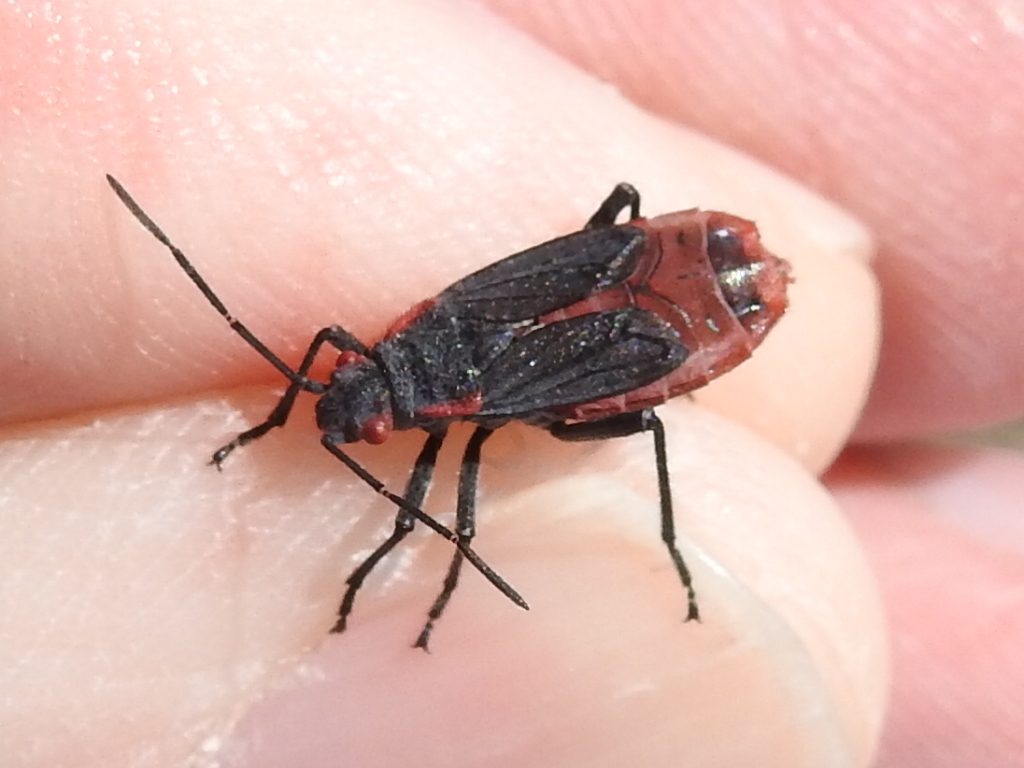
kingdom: Animalia
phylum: Arthropoda
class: Insecta
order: Hemiptera
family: Rhopalidae
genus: Jadera
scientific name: Jadera haematoloma
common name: Red-shouldered bug
